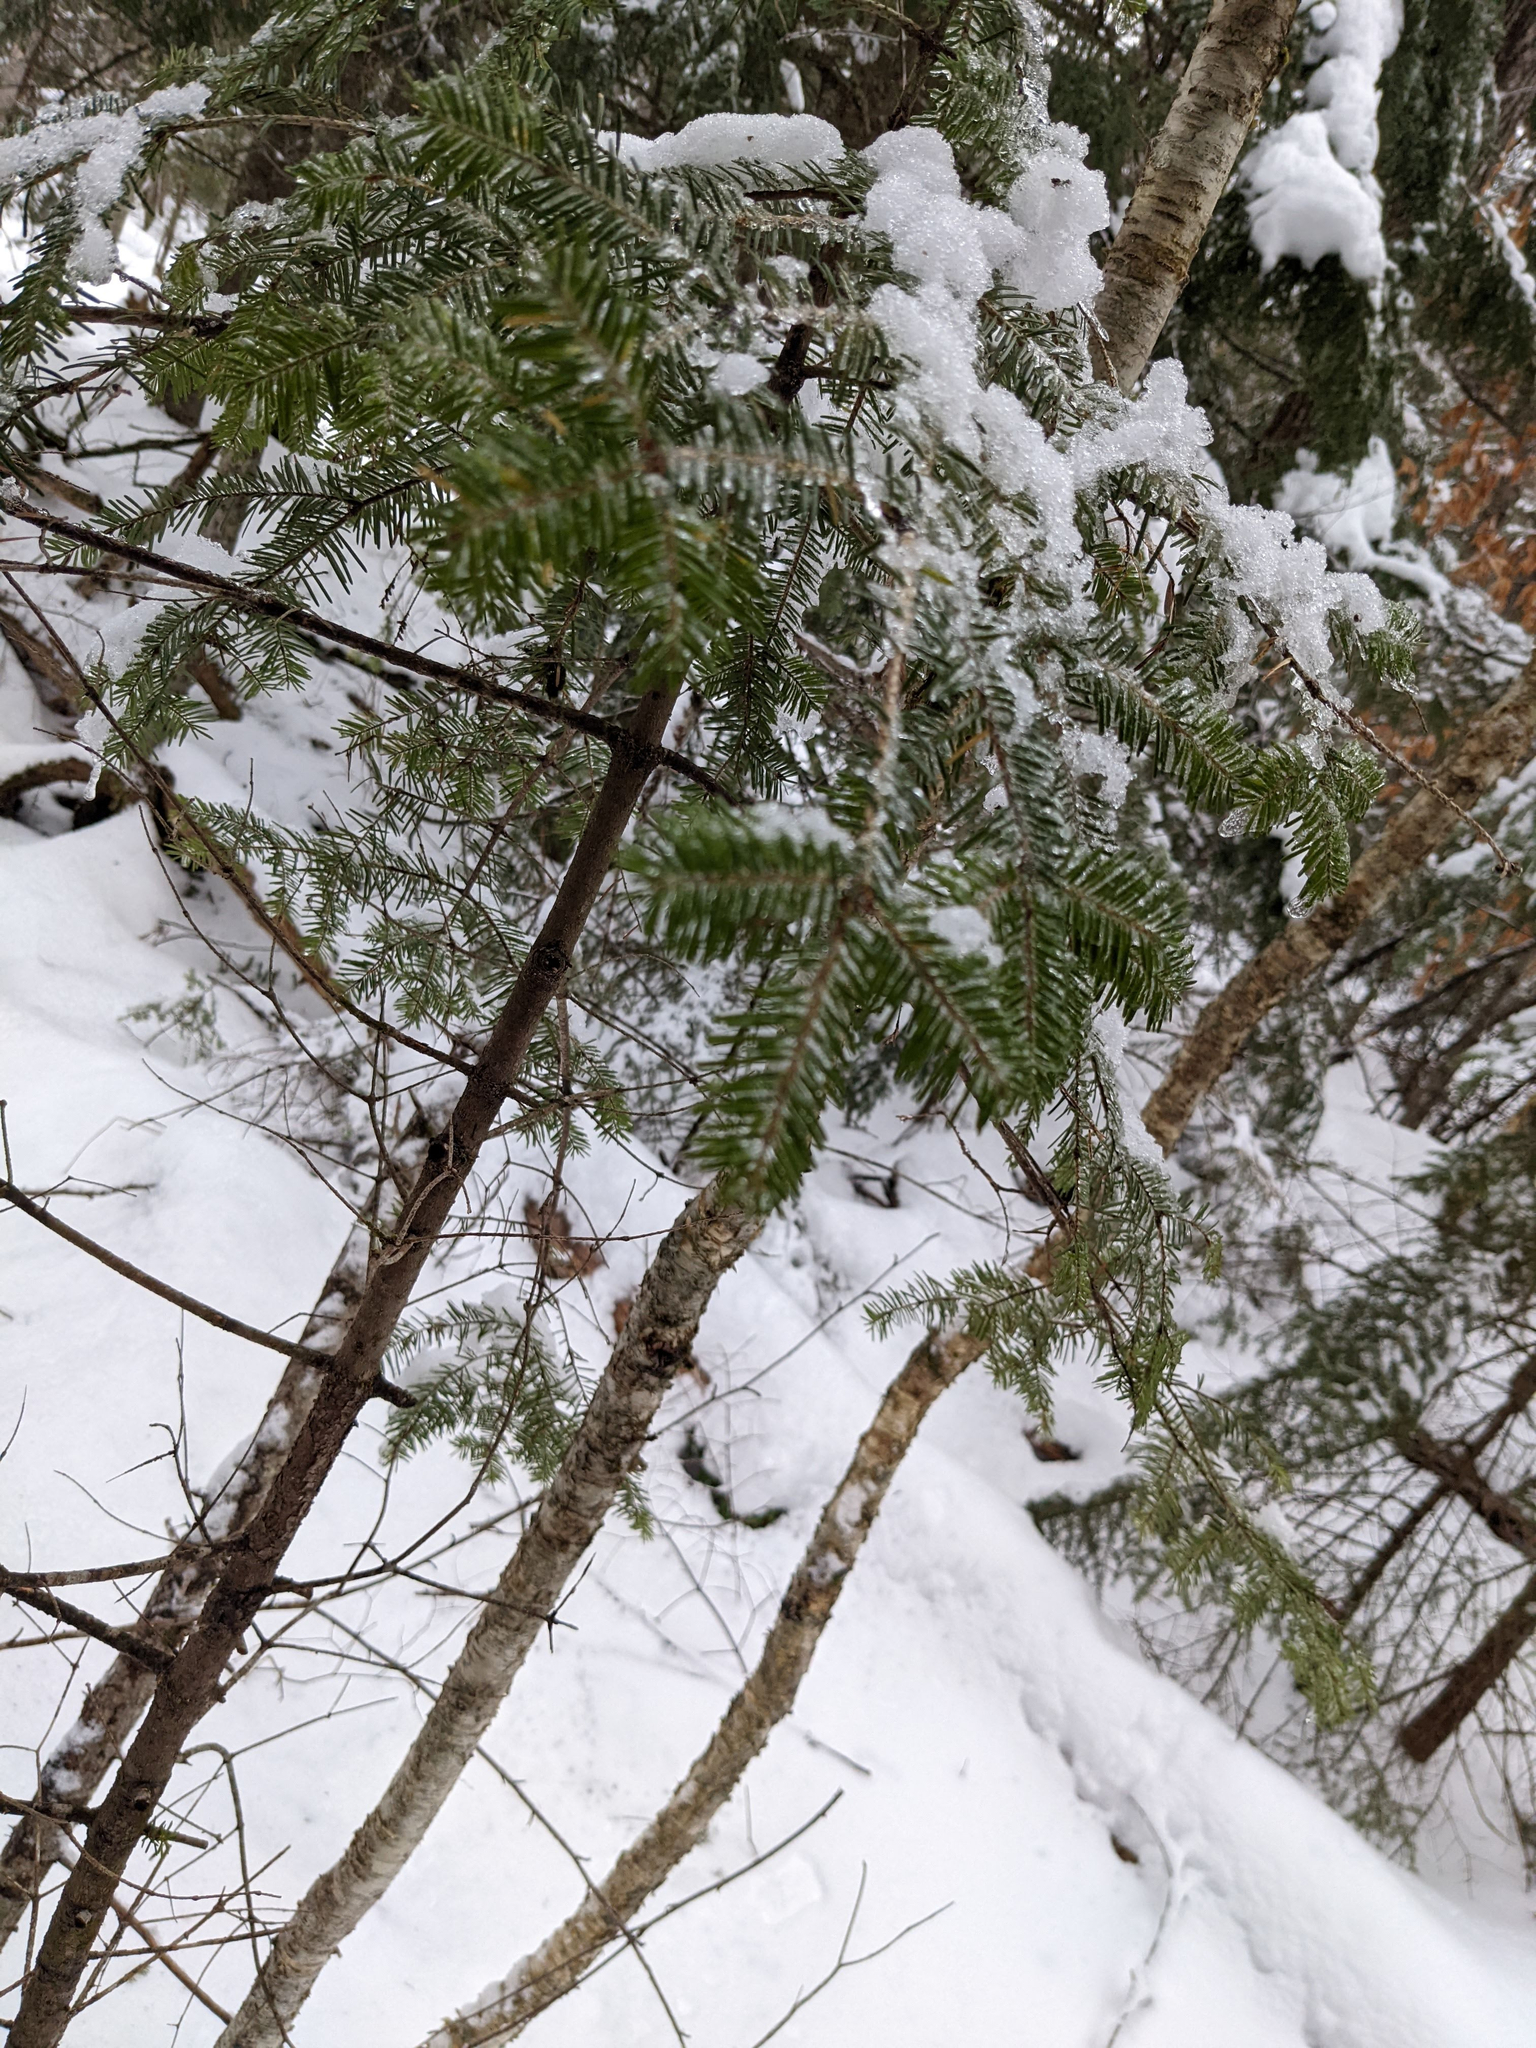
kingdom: Plantae
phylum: Tracheophyta
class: Pinopsida
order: Pinales
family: Pinaceae
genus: Abies
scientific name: Abies balsamea
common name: Balsam fir
